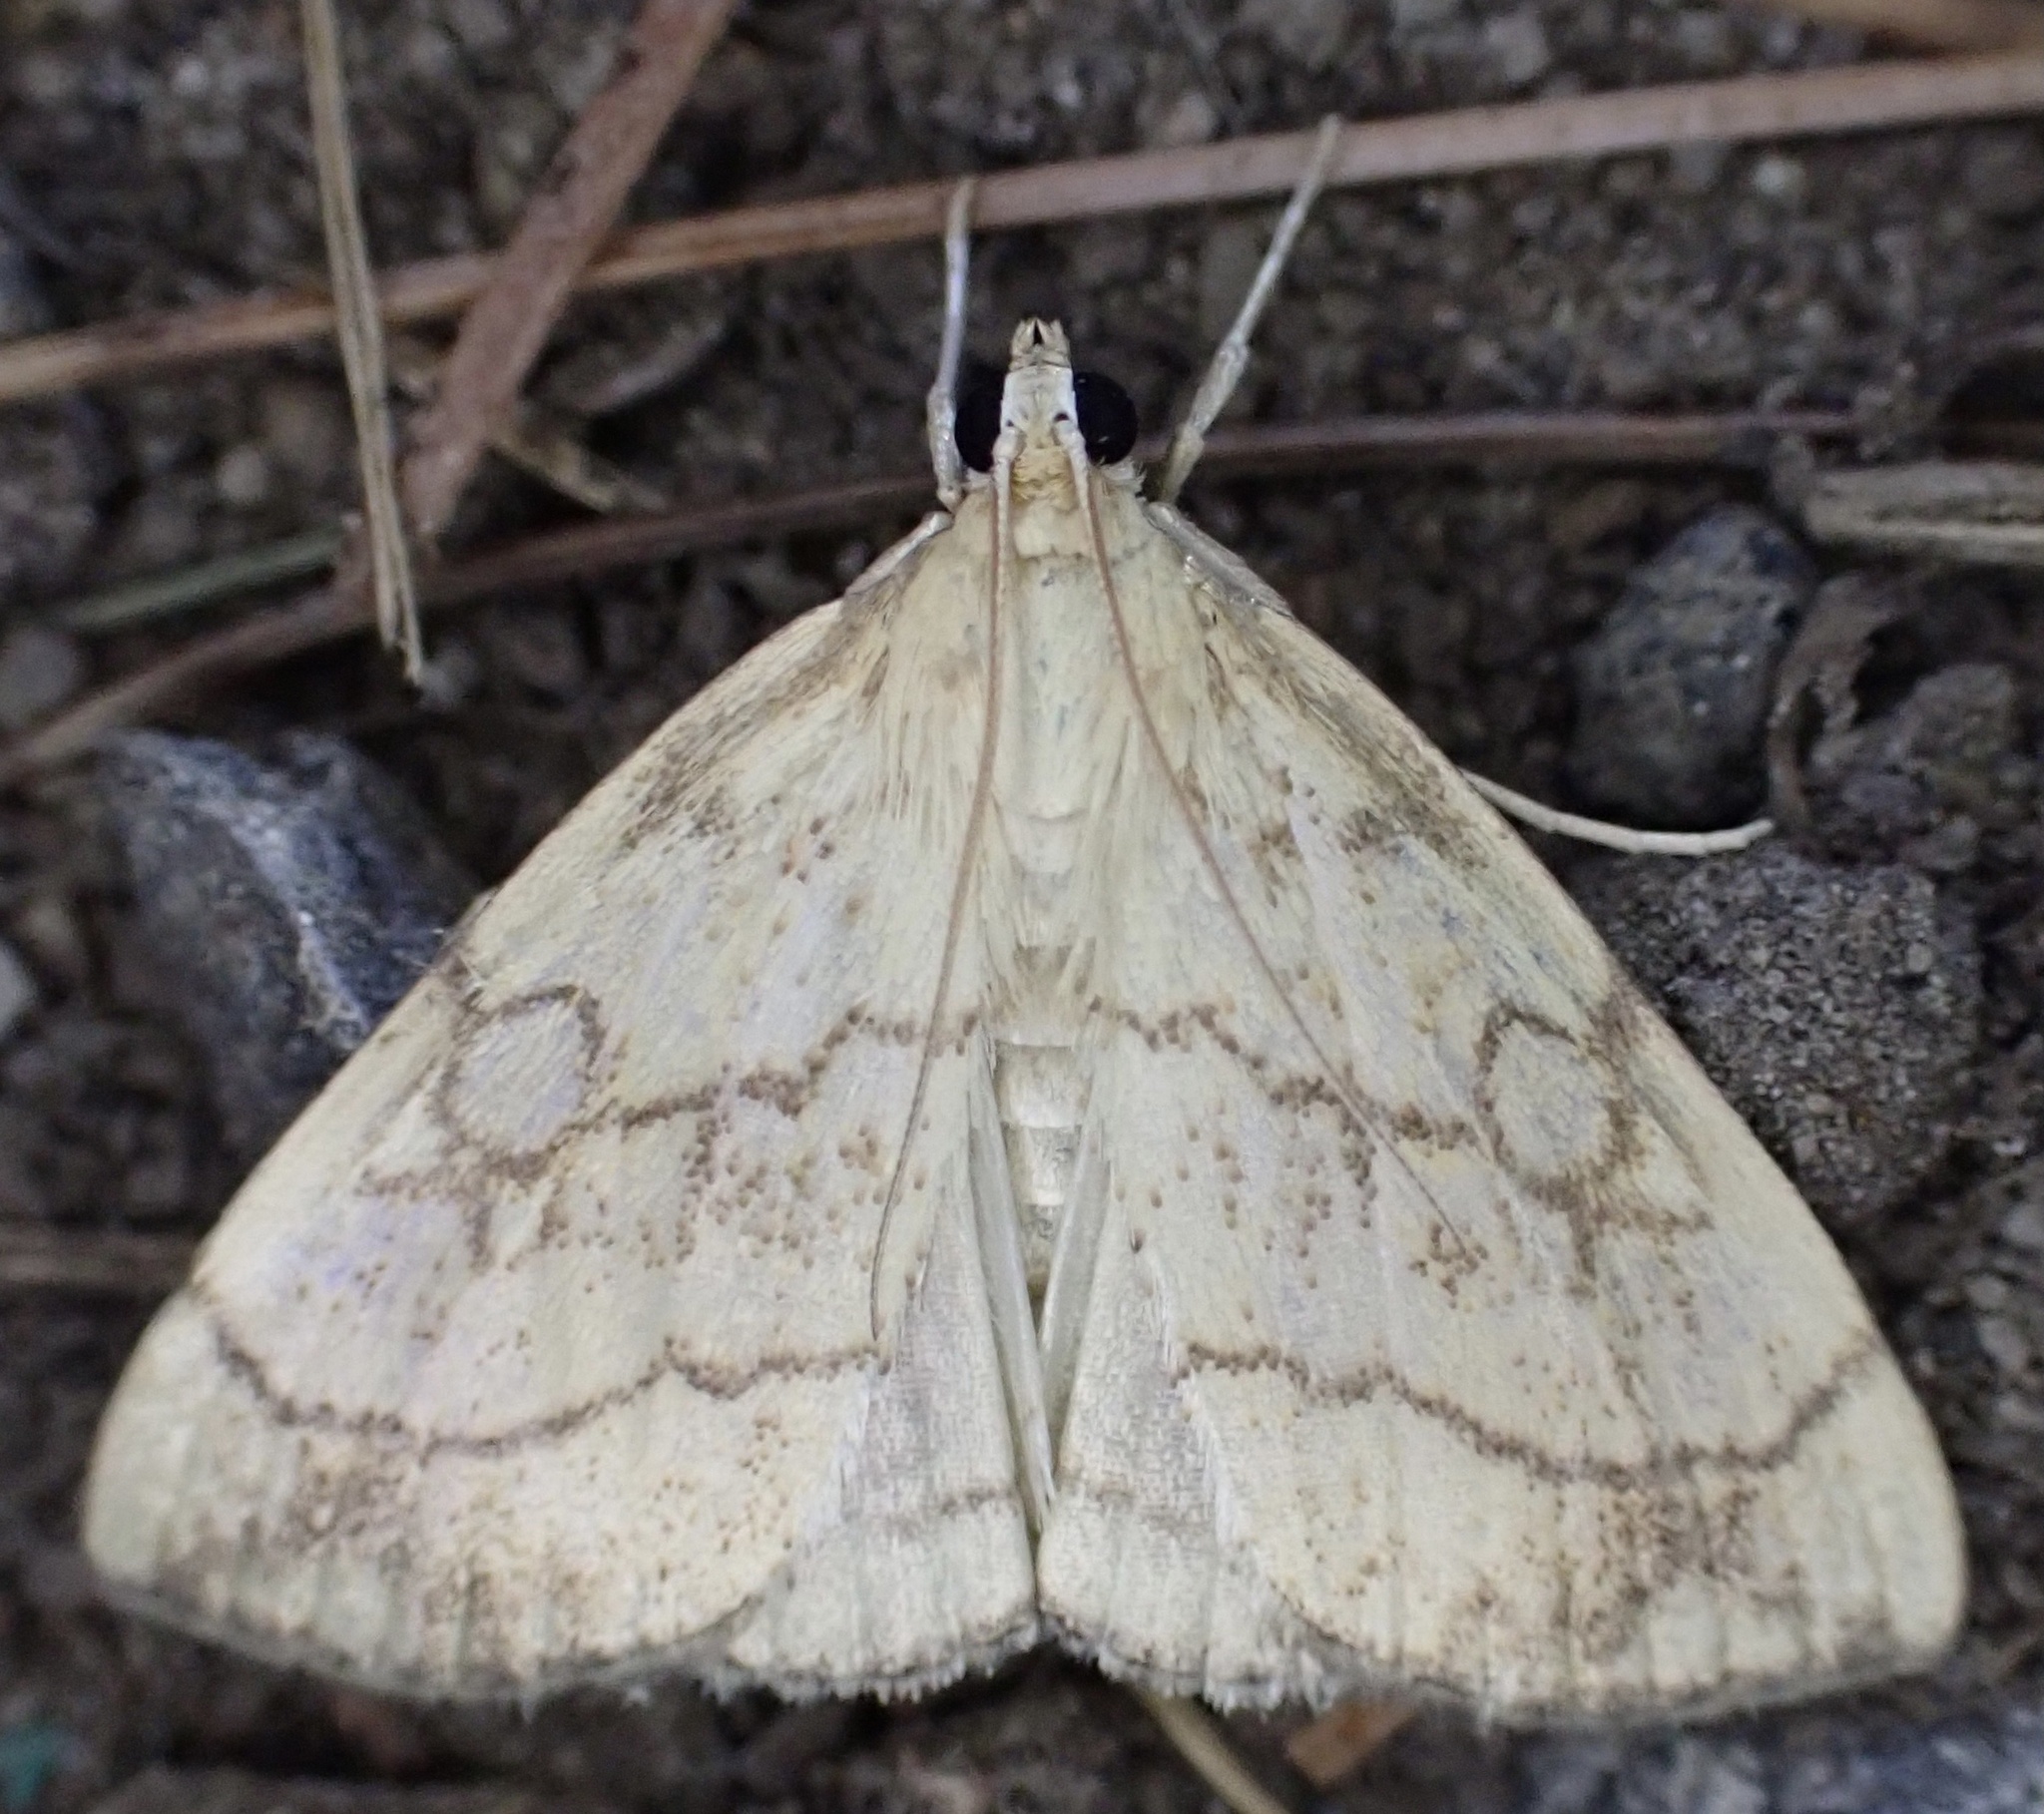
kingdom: Animalia
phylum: Arthropoda
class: Insecta
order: Lepidoptera
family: Crambidae
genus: Evergestis
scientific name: Evergestis pallidata
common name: Chequered pearl
